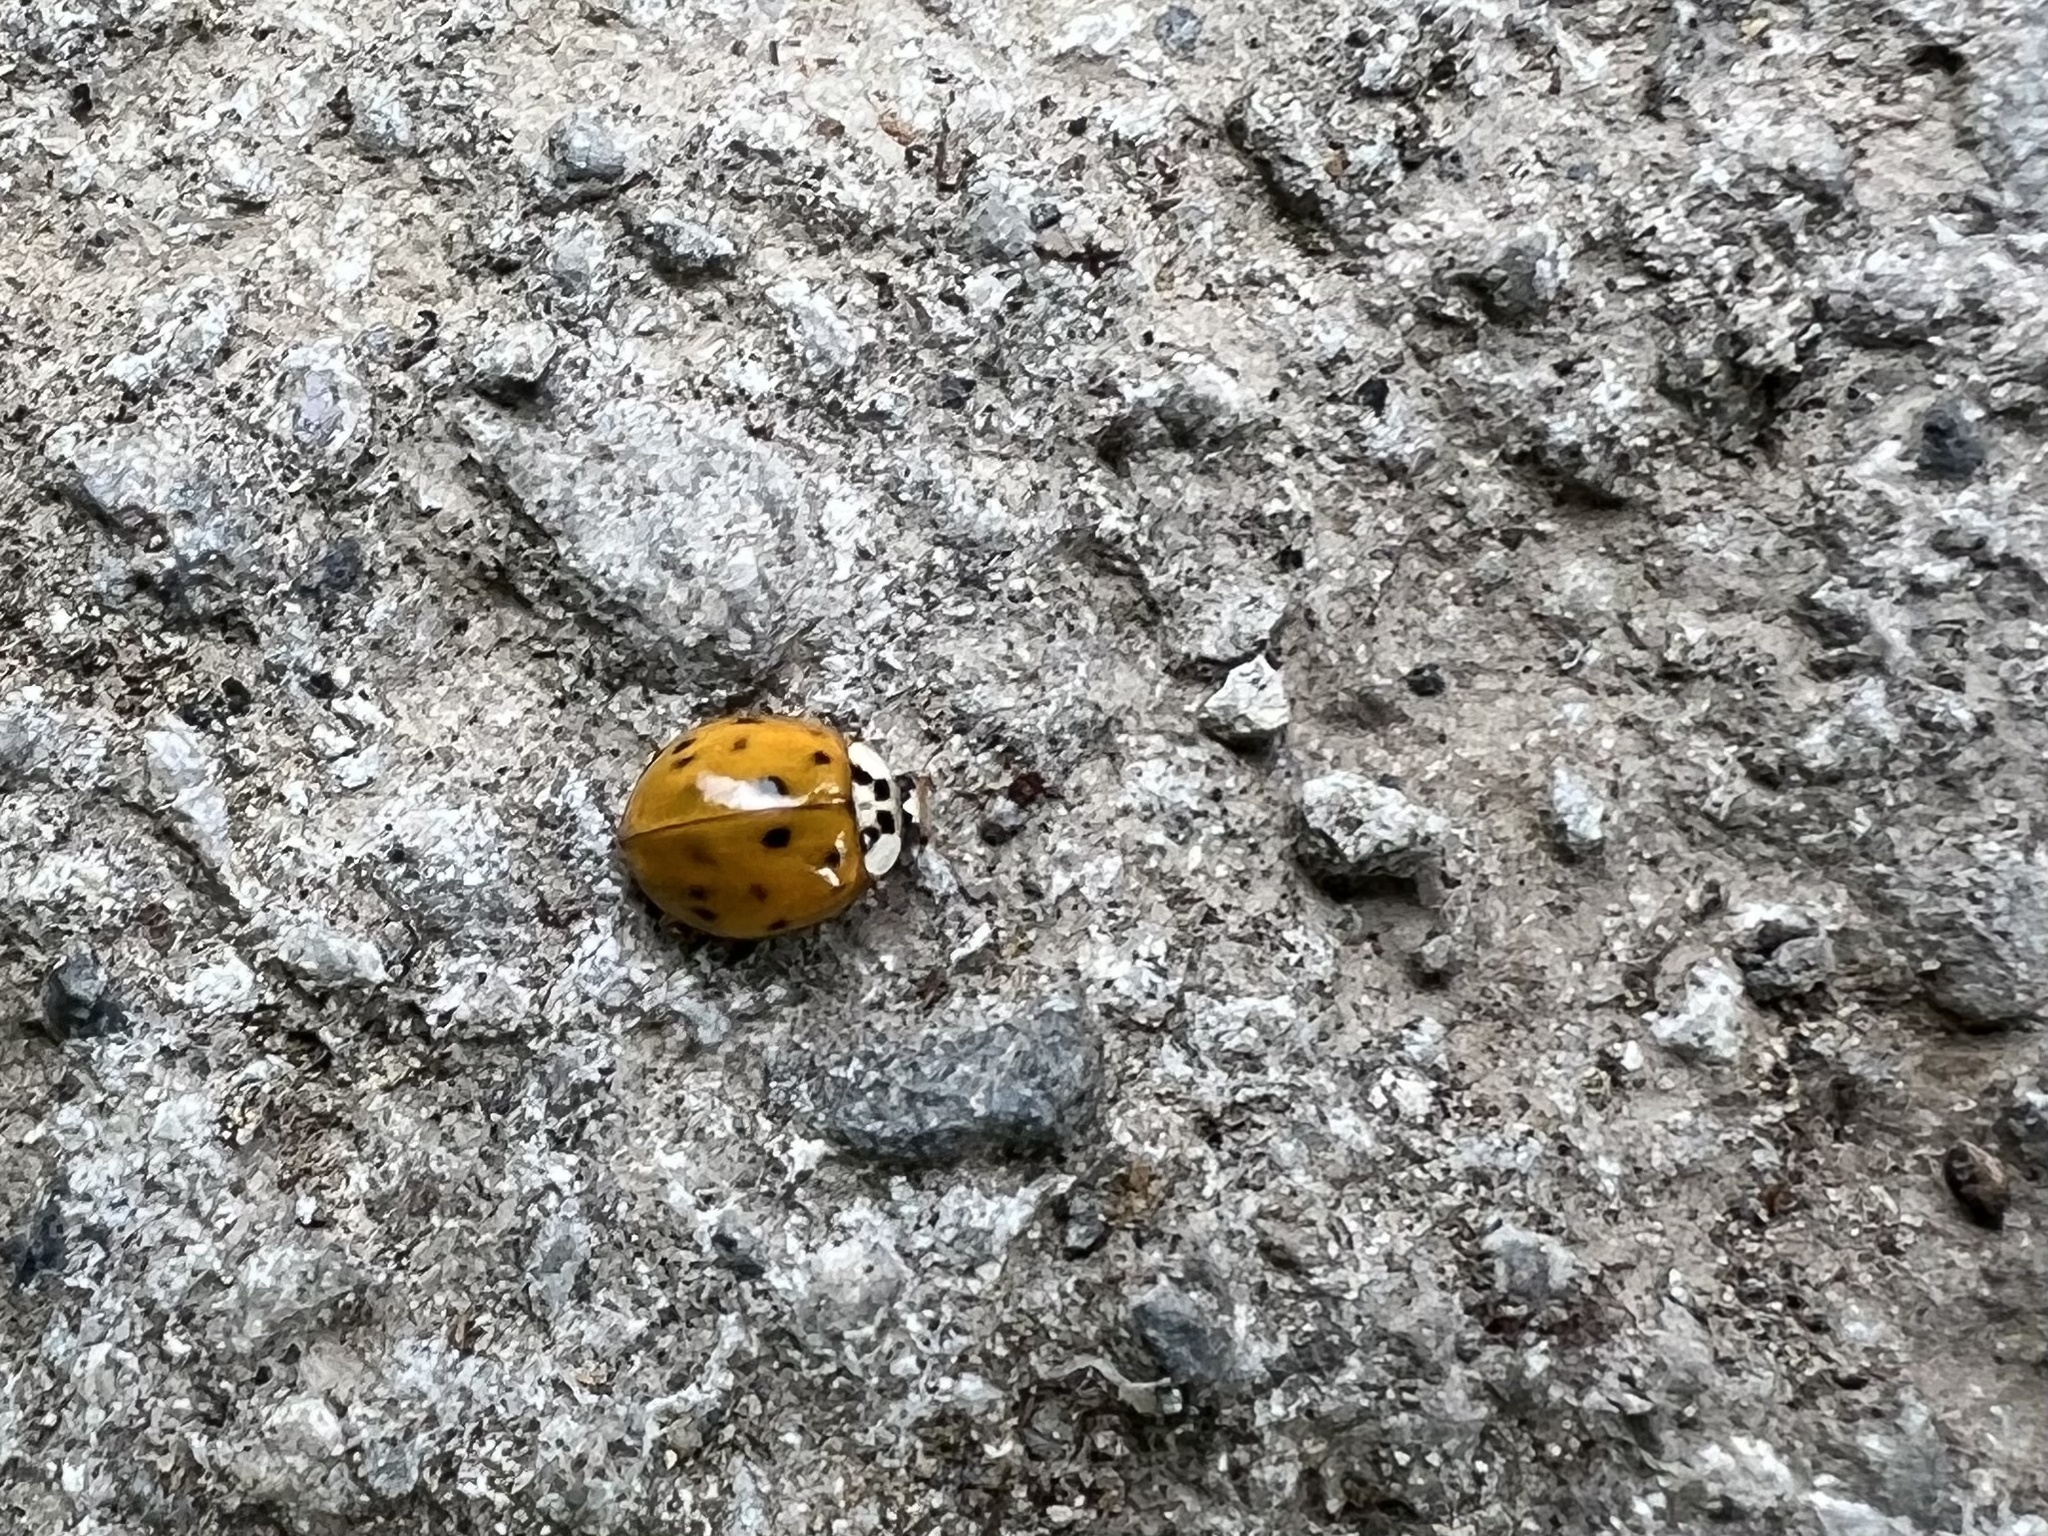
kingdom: Animalia
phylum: Arthropoda
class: Insecta
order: Coleoptera
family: Coccinellidae
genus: Harmonia
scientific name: Harmonia axyridis
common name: Harlequin ladybird
